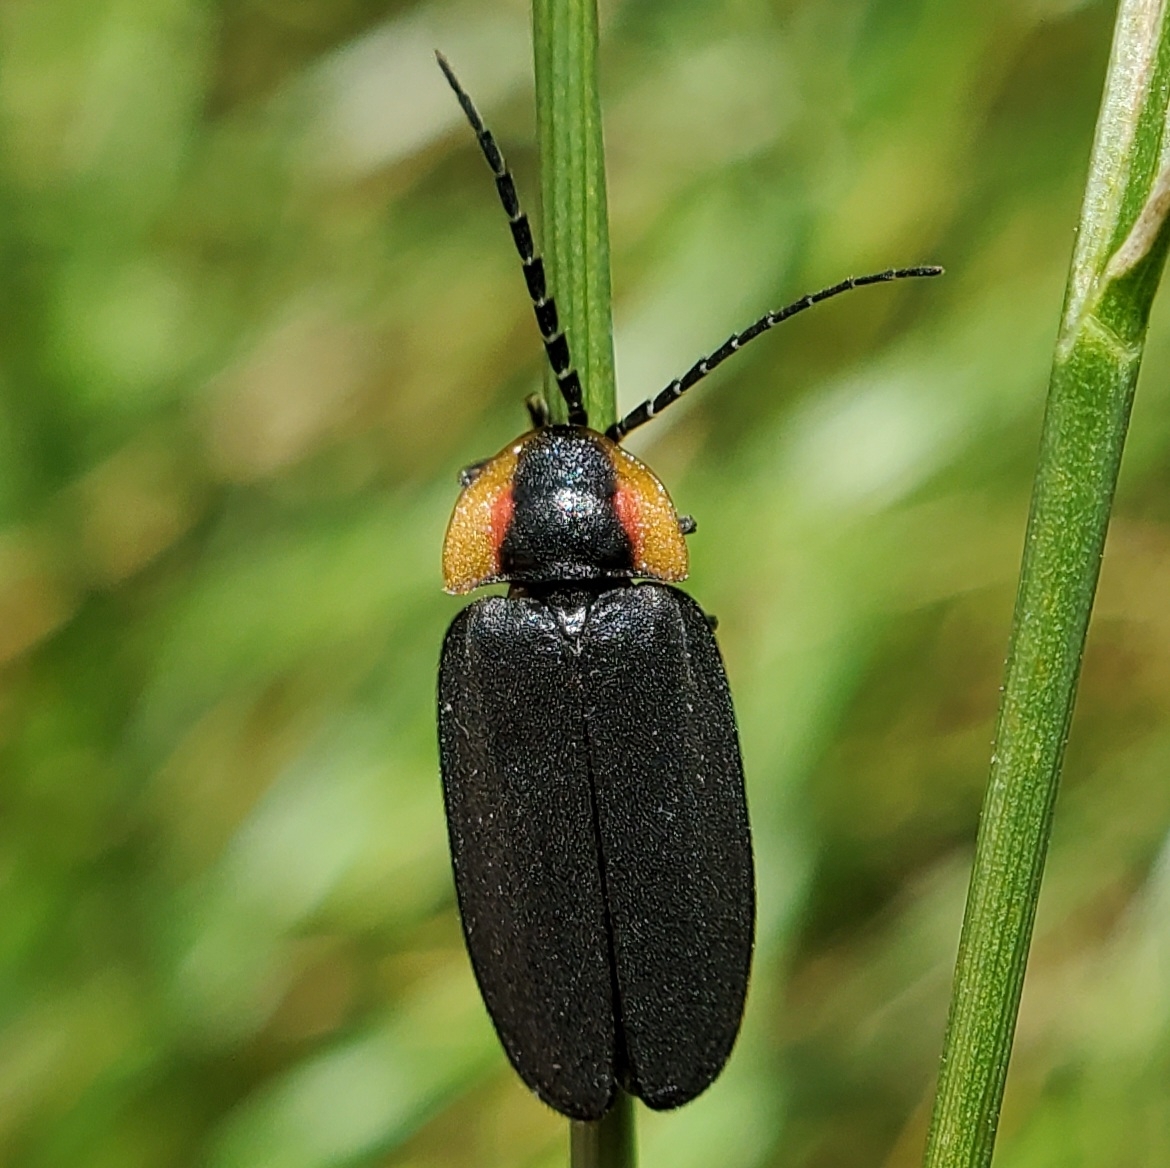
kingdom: Animalia
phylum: Arthropoda
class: Insecta
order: Coleoptera
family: Lampyridae
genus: Lucidota
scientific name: Lucidota atra
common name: Black firefly
